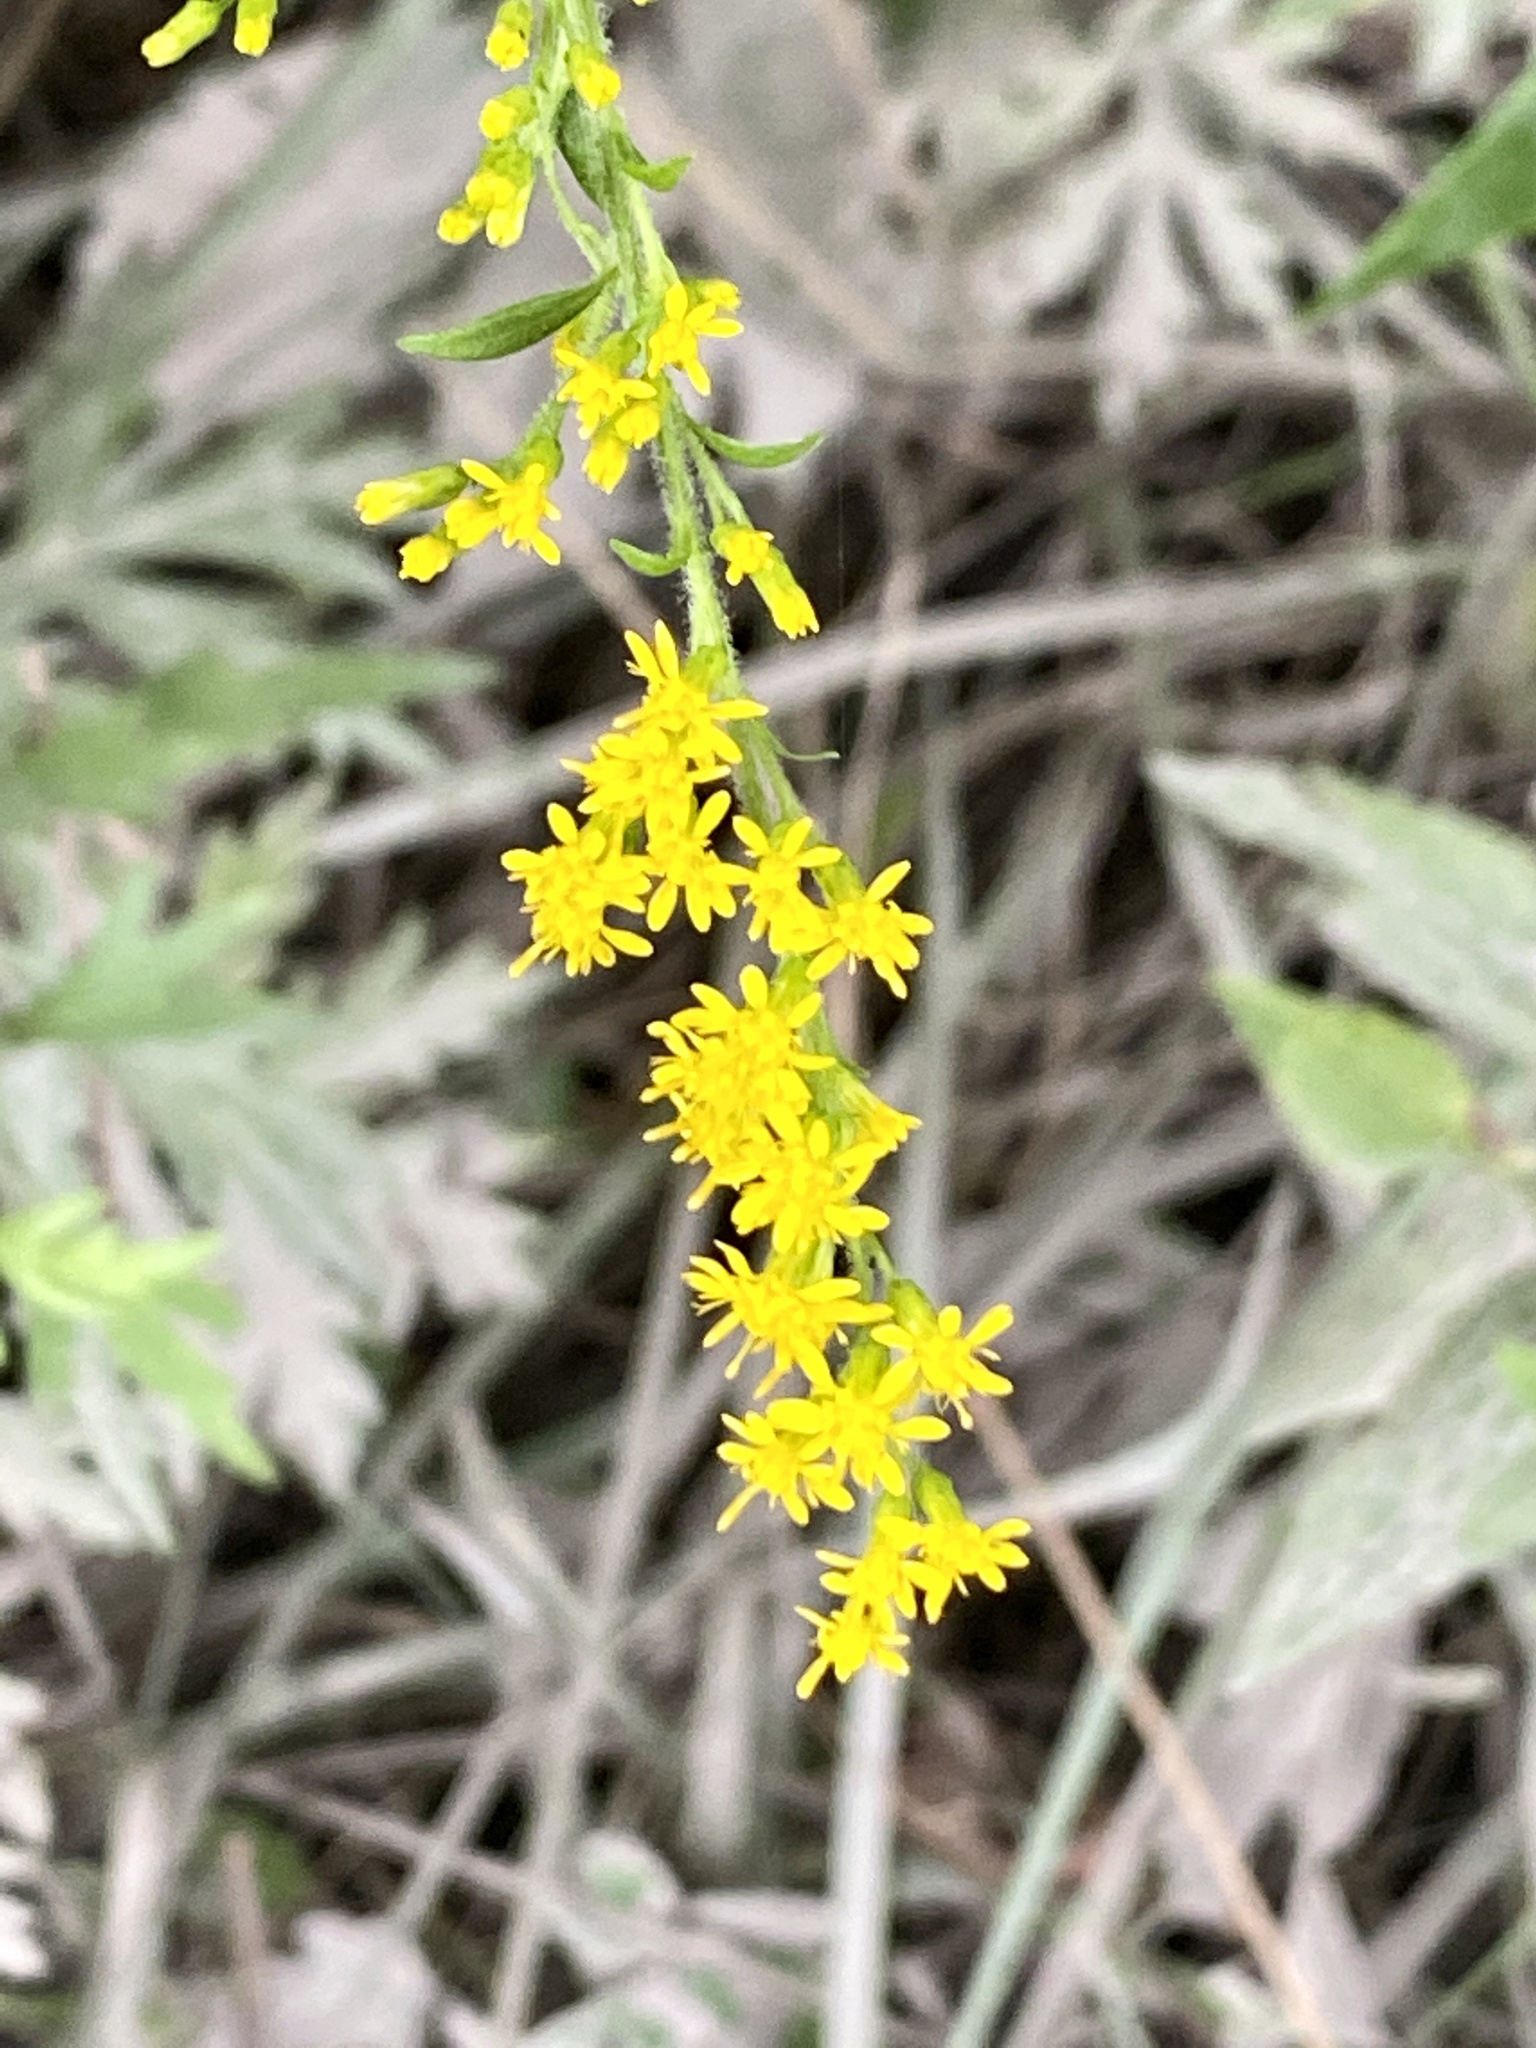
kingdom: Plantae
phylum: Tracheophyta
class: Magnoliopsida
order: Asterales
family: Asteraceae
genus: Solidago
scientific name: Solidago rugosa
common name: Rough-stemmed goldenrod
